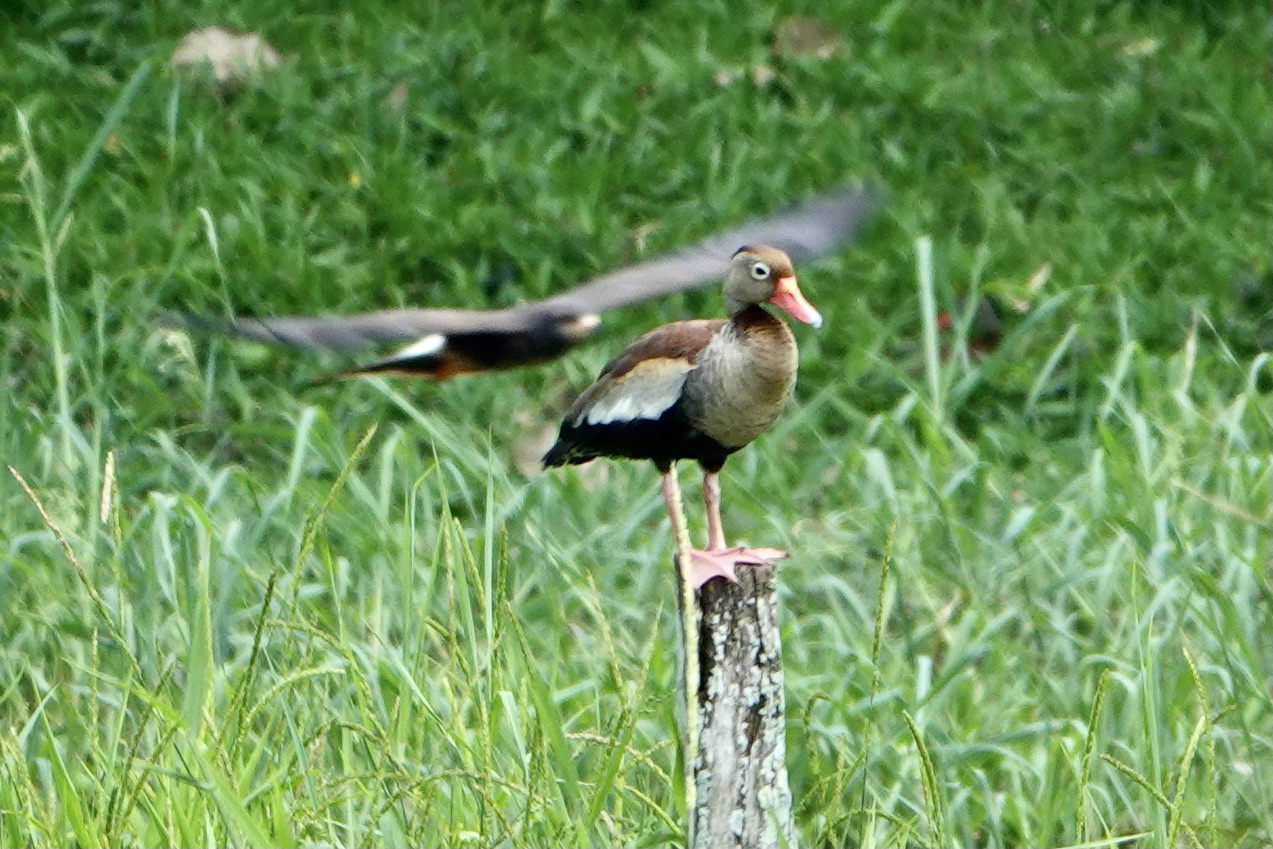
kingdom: Animalia
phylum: Chordata
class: Aves
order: Anseriformes
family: Anatidae
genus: Dendrocygna
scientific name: Dendrocygna autumnalis
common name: Black-bellied whistling duck
